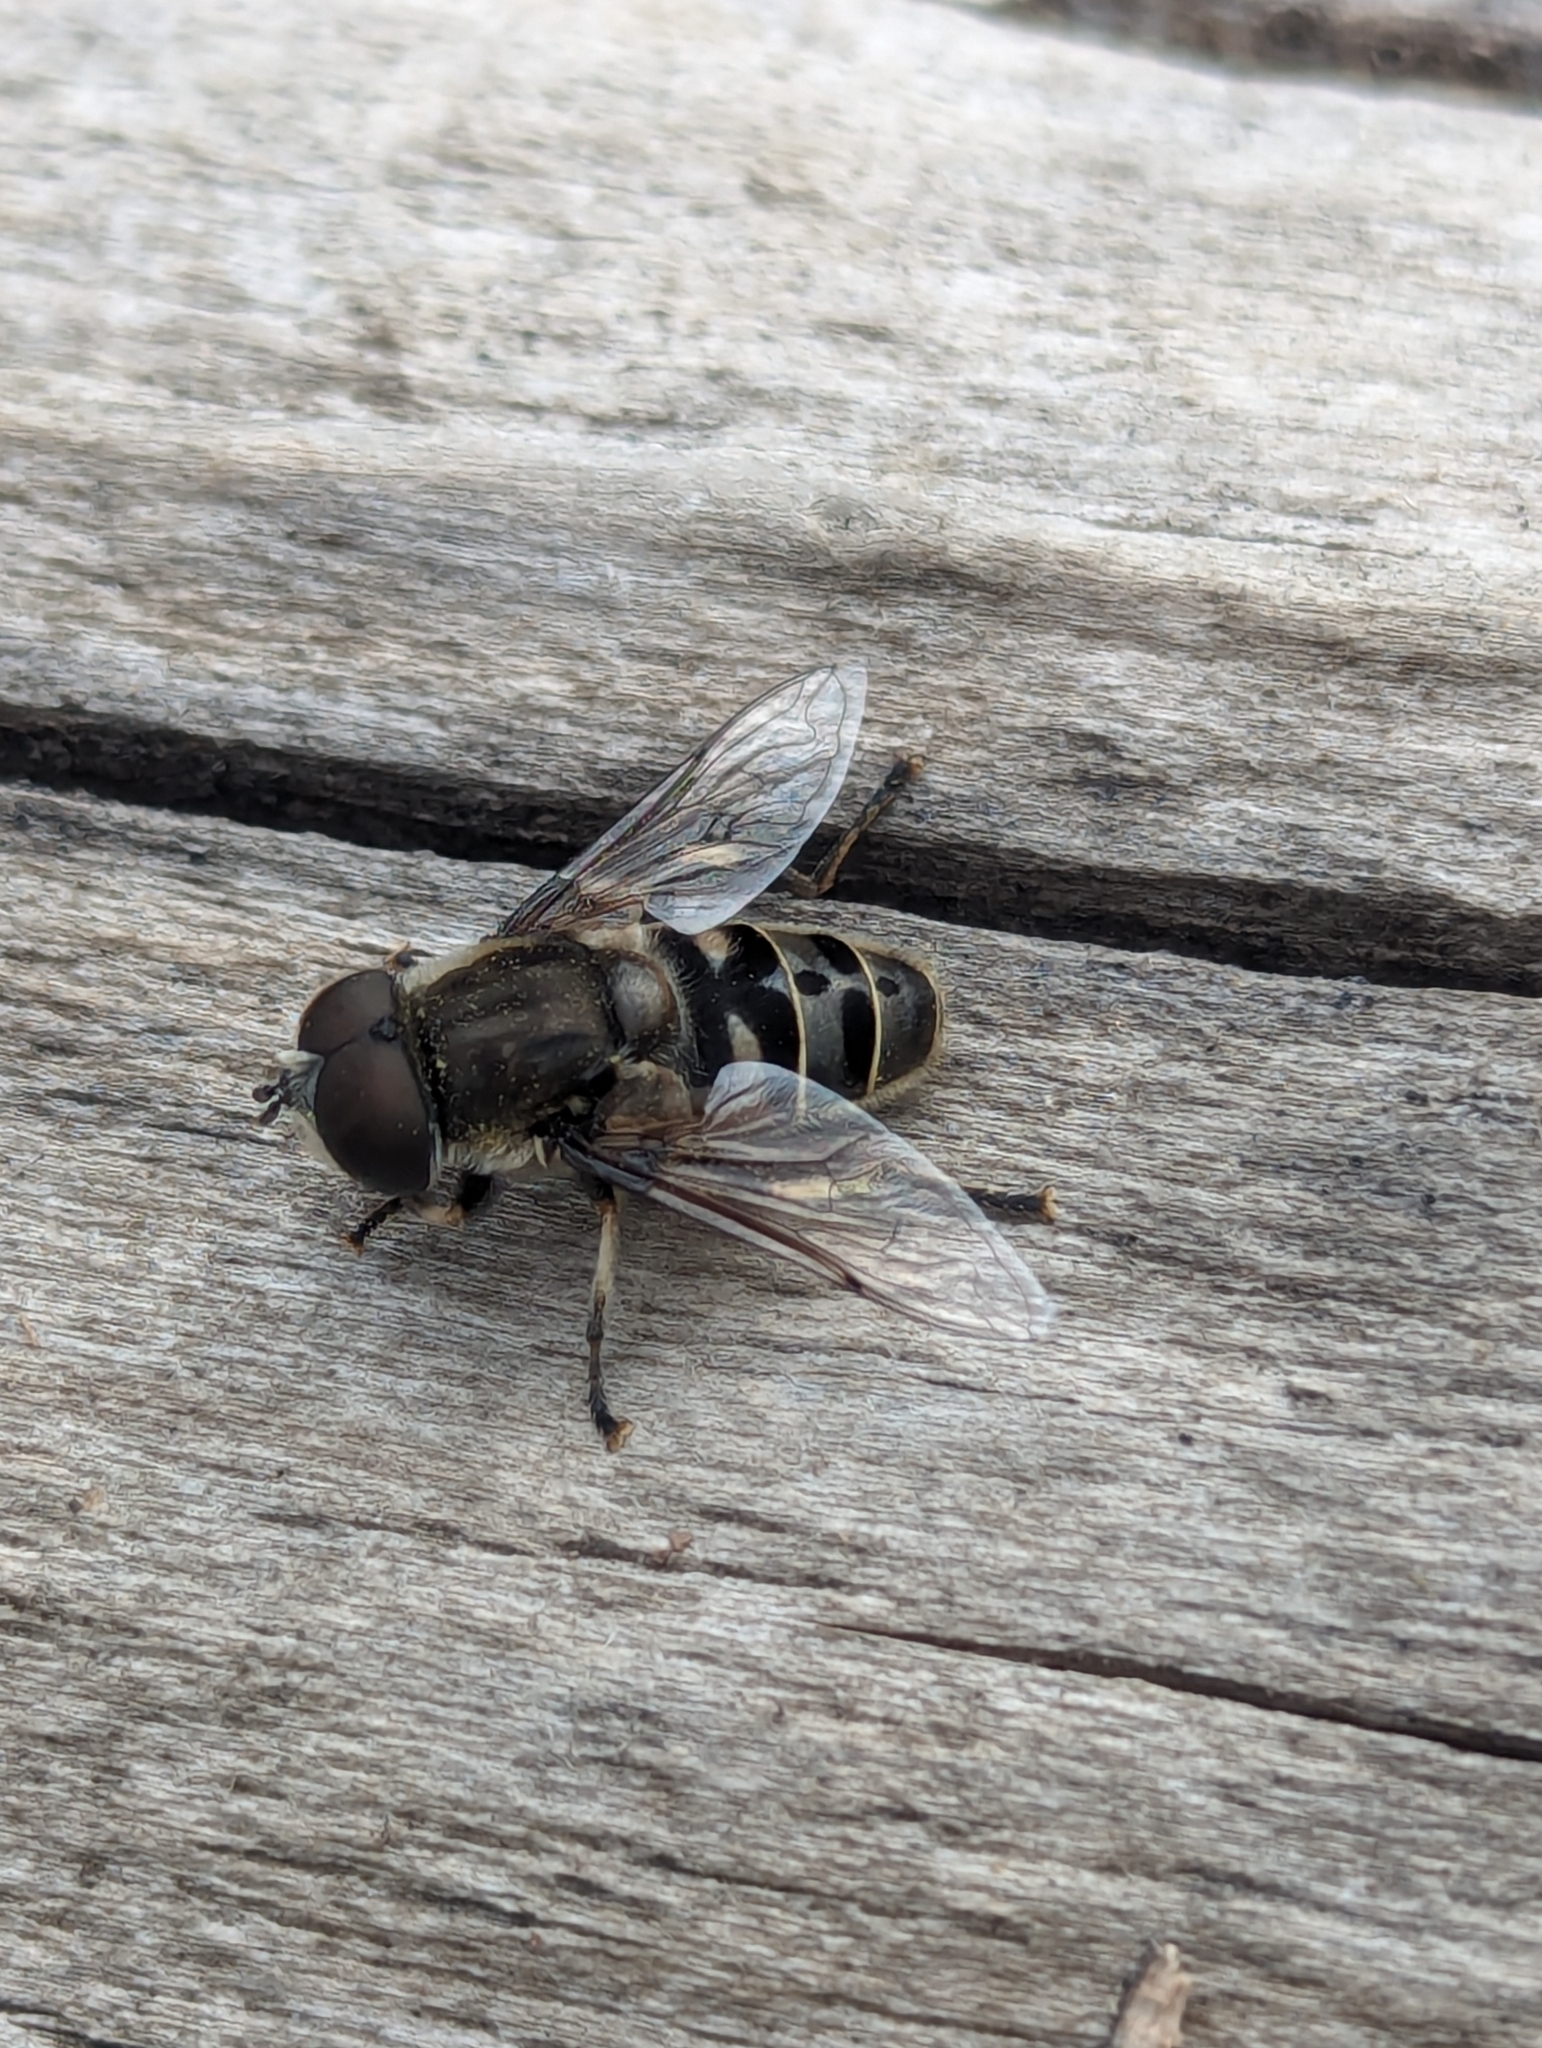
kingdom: Animalia
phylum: Arthropoda
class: Insecta
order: Diptera
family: Syrphidae
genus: Eristalis
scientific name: Eristalis dimidiata
